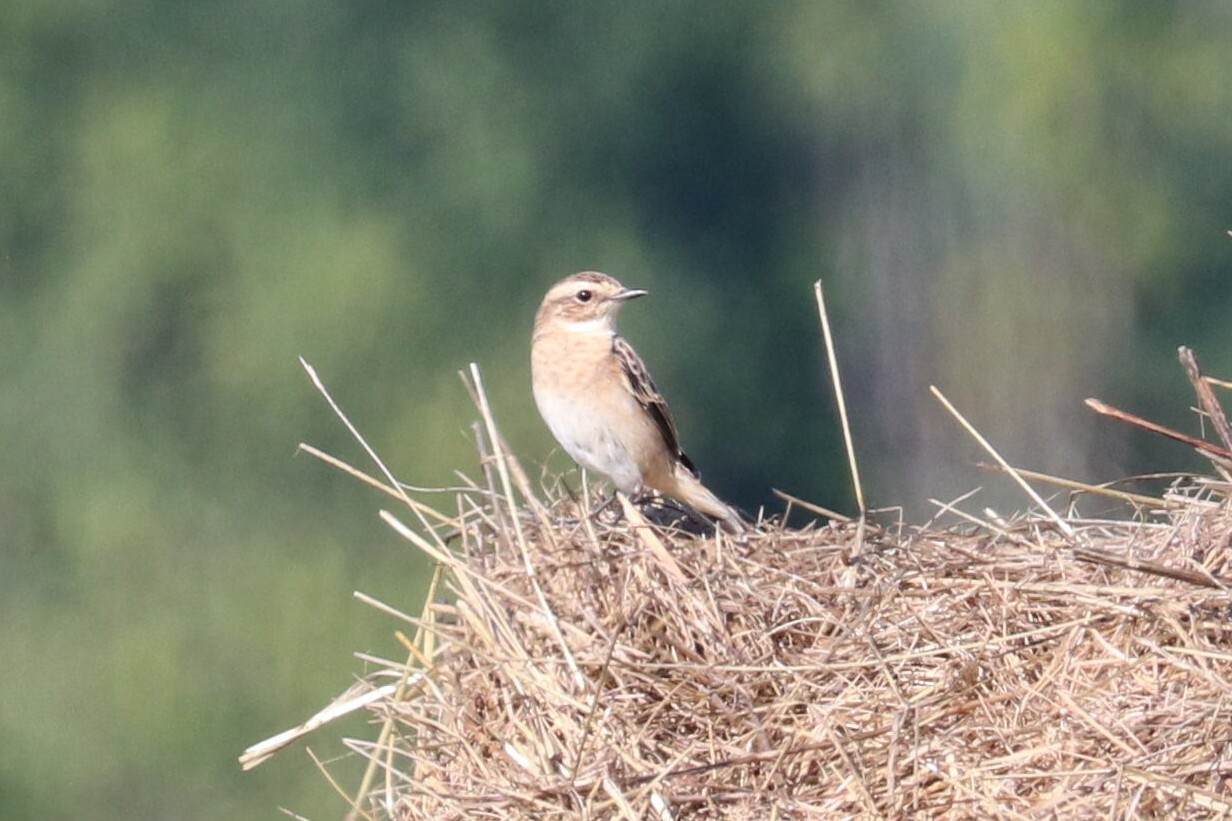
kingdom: Animalia
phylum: Chordata
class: Aves
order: Passeriformes
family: Muscicapidae
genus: Saxicola
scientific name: Saxicola rubetra
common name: Whinchat
